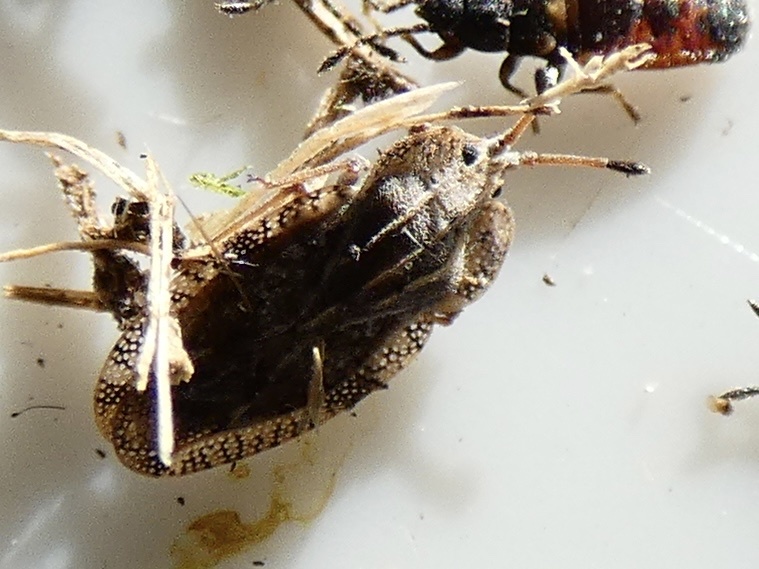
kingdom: Animalia
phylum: Arthropoda
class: Insecta
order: Hemiptera
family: Tingidae
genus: Tingis
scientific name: Tingis ampliata
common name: Creeping thistle lacebug
